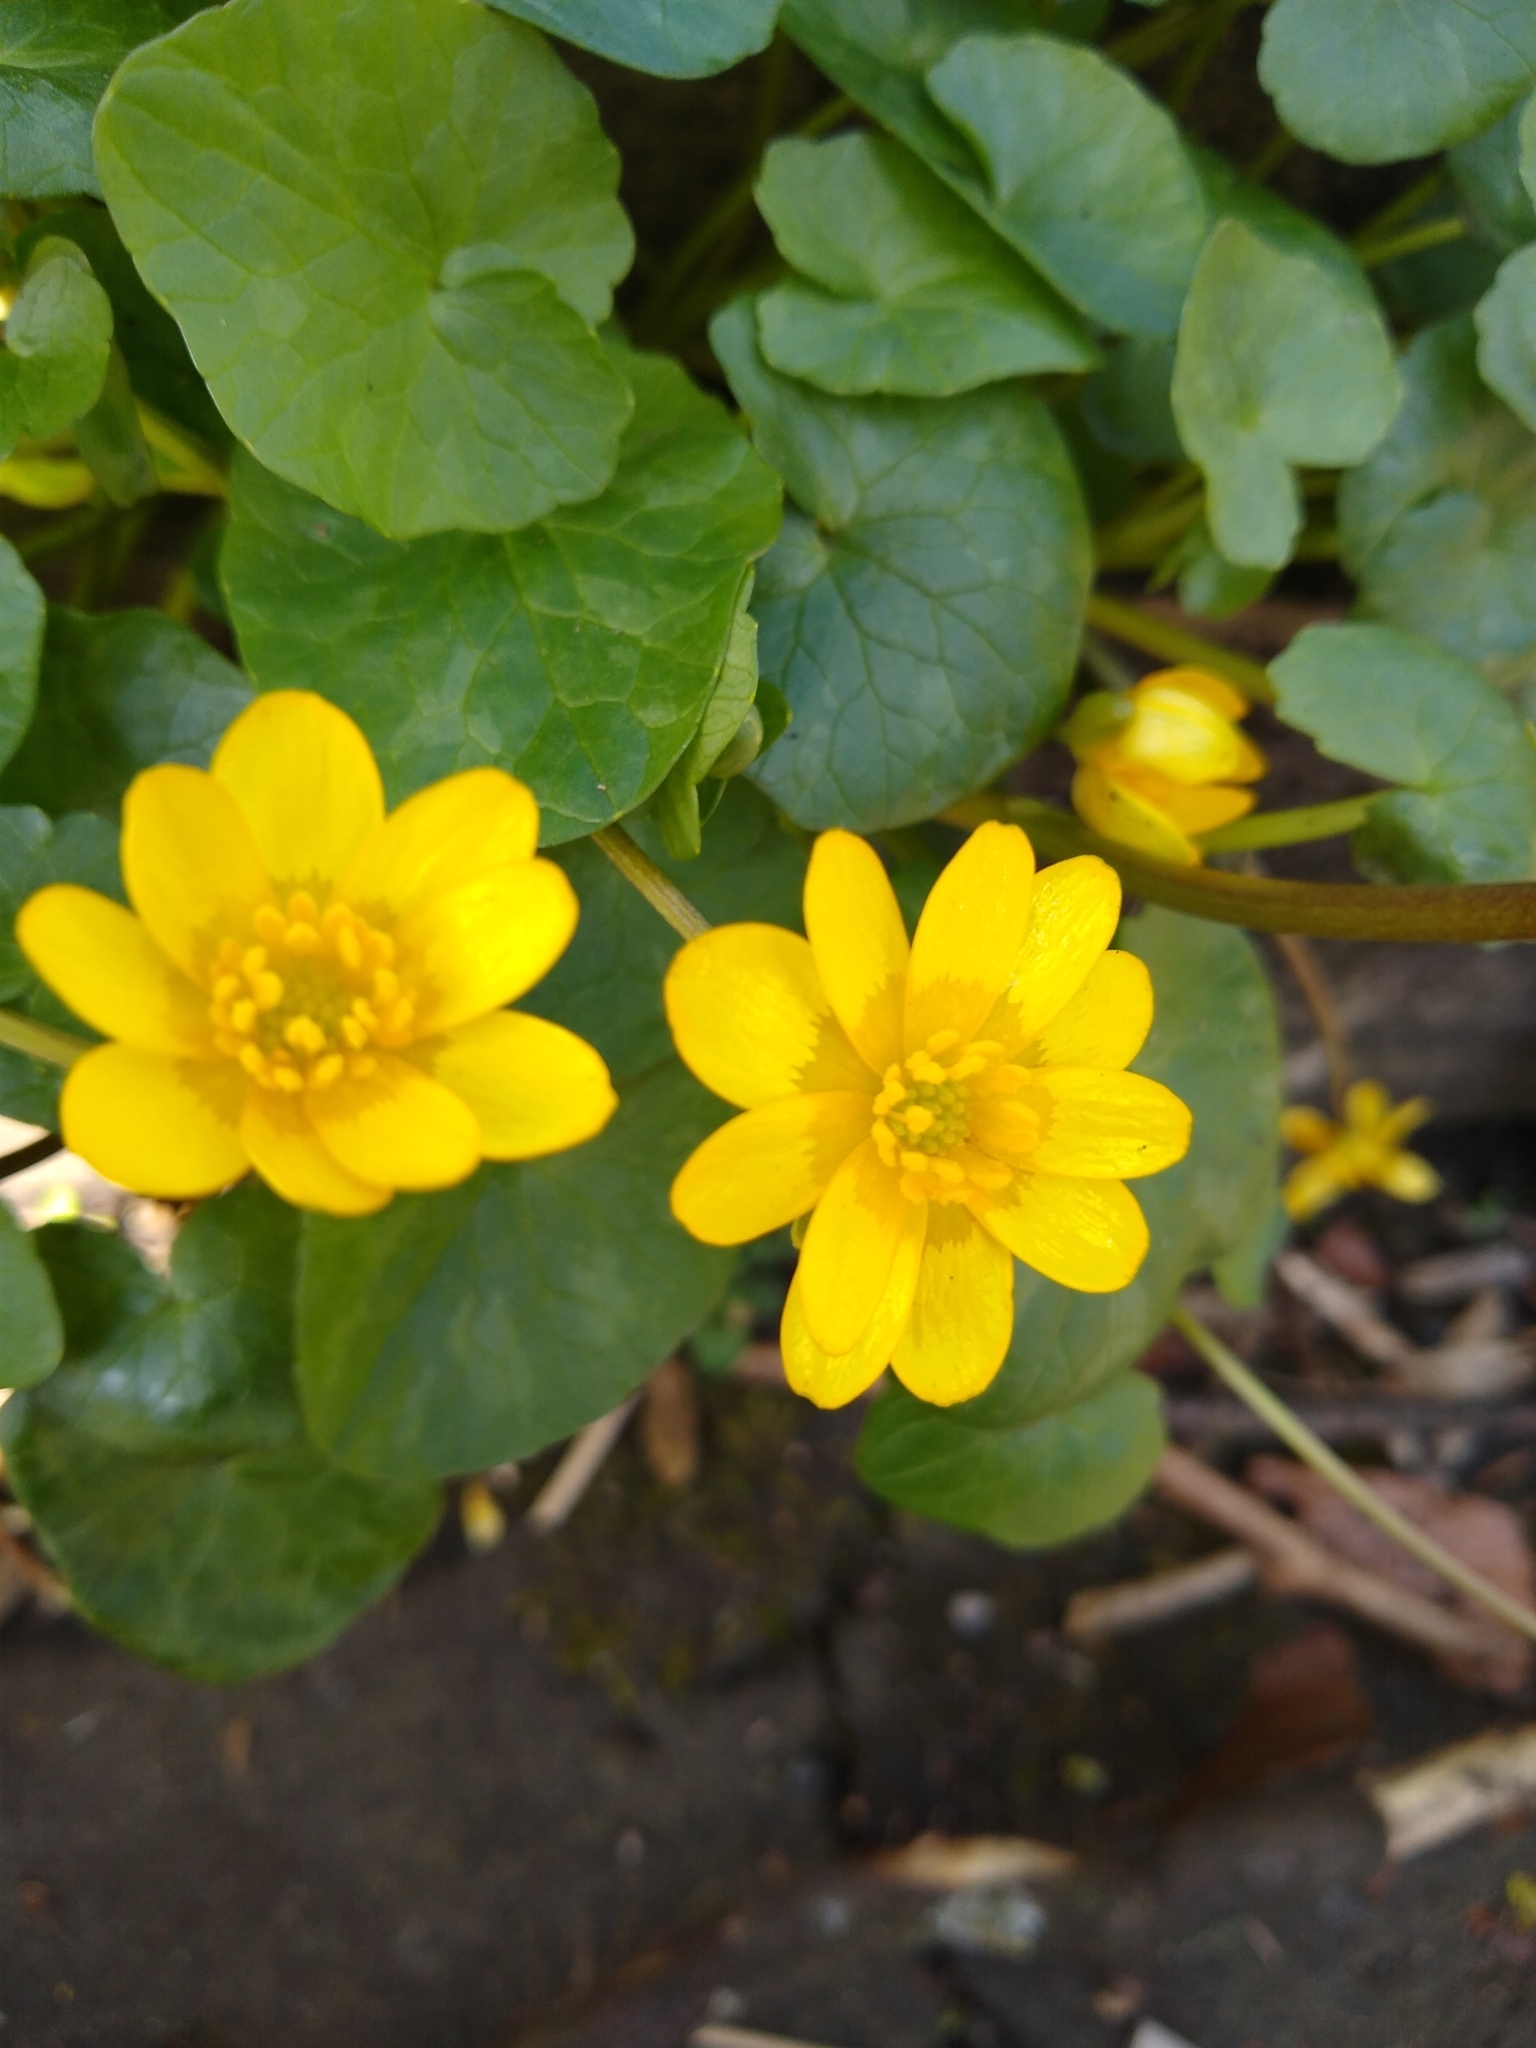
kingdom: Plantae
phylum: Tracheophyta
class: Magnoliopsida
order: Ranunculales
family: Ranunculaceae
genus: Ficaria
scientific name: Ficaria verna
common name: Lesser celandine
